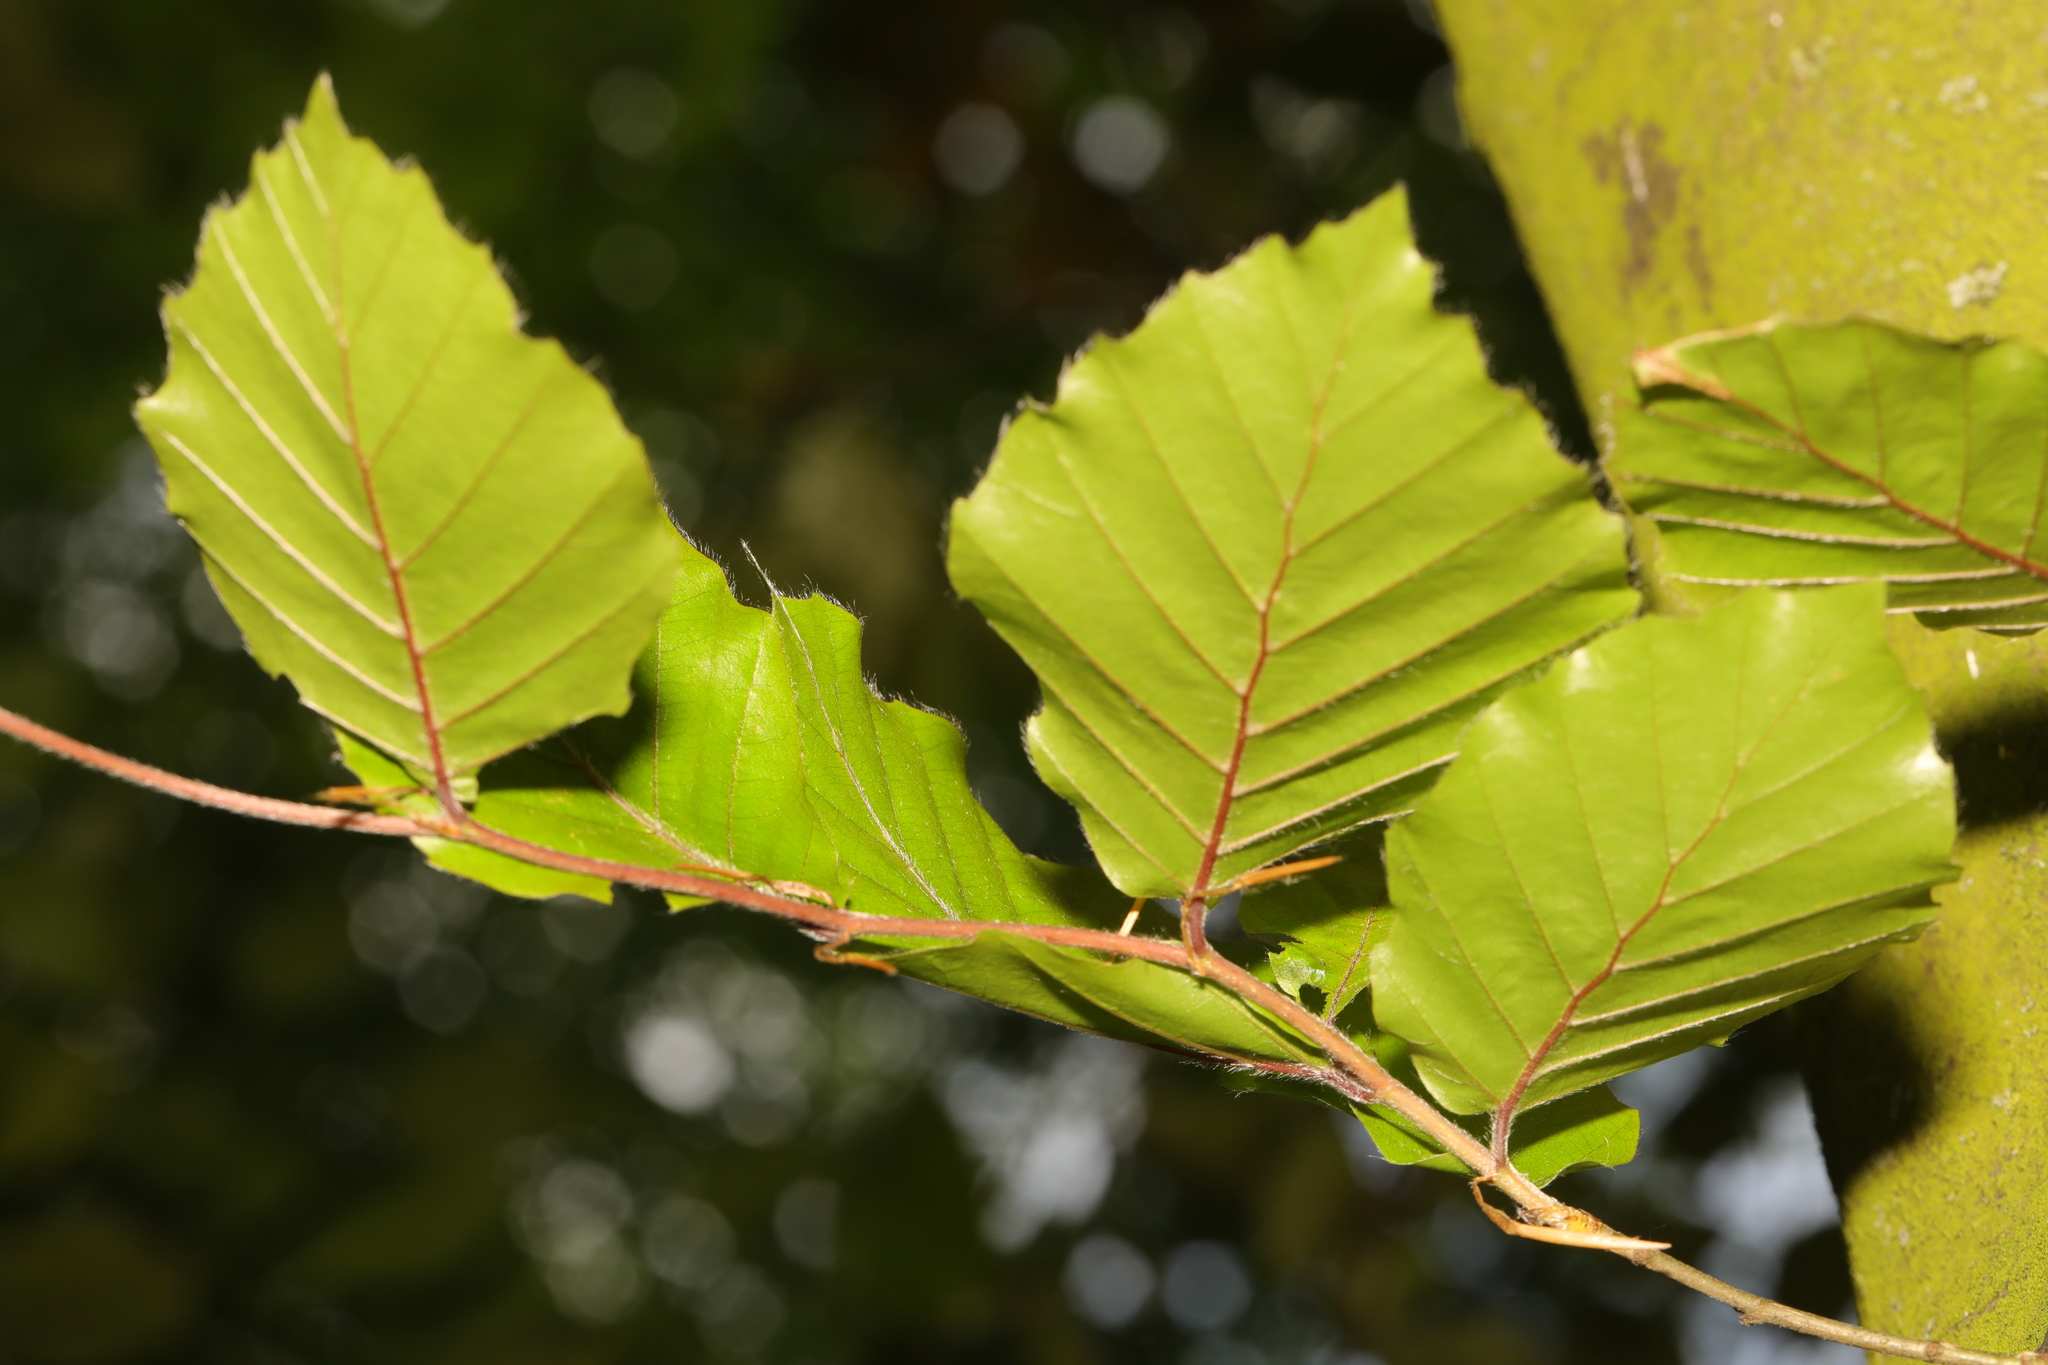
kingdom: Plantae
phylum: Tracheophyta
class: Magnoliopsida
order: Fagales
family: Fagaceae
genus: Fagus
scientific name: Fagus sylvatica
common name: Beech
